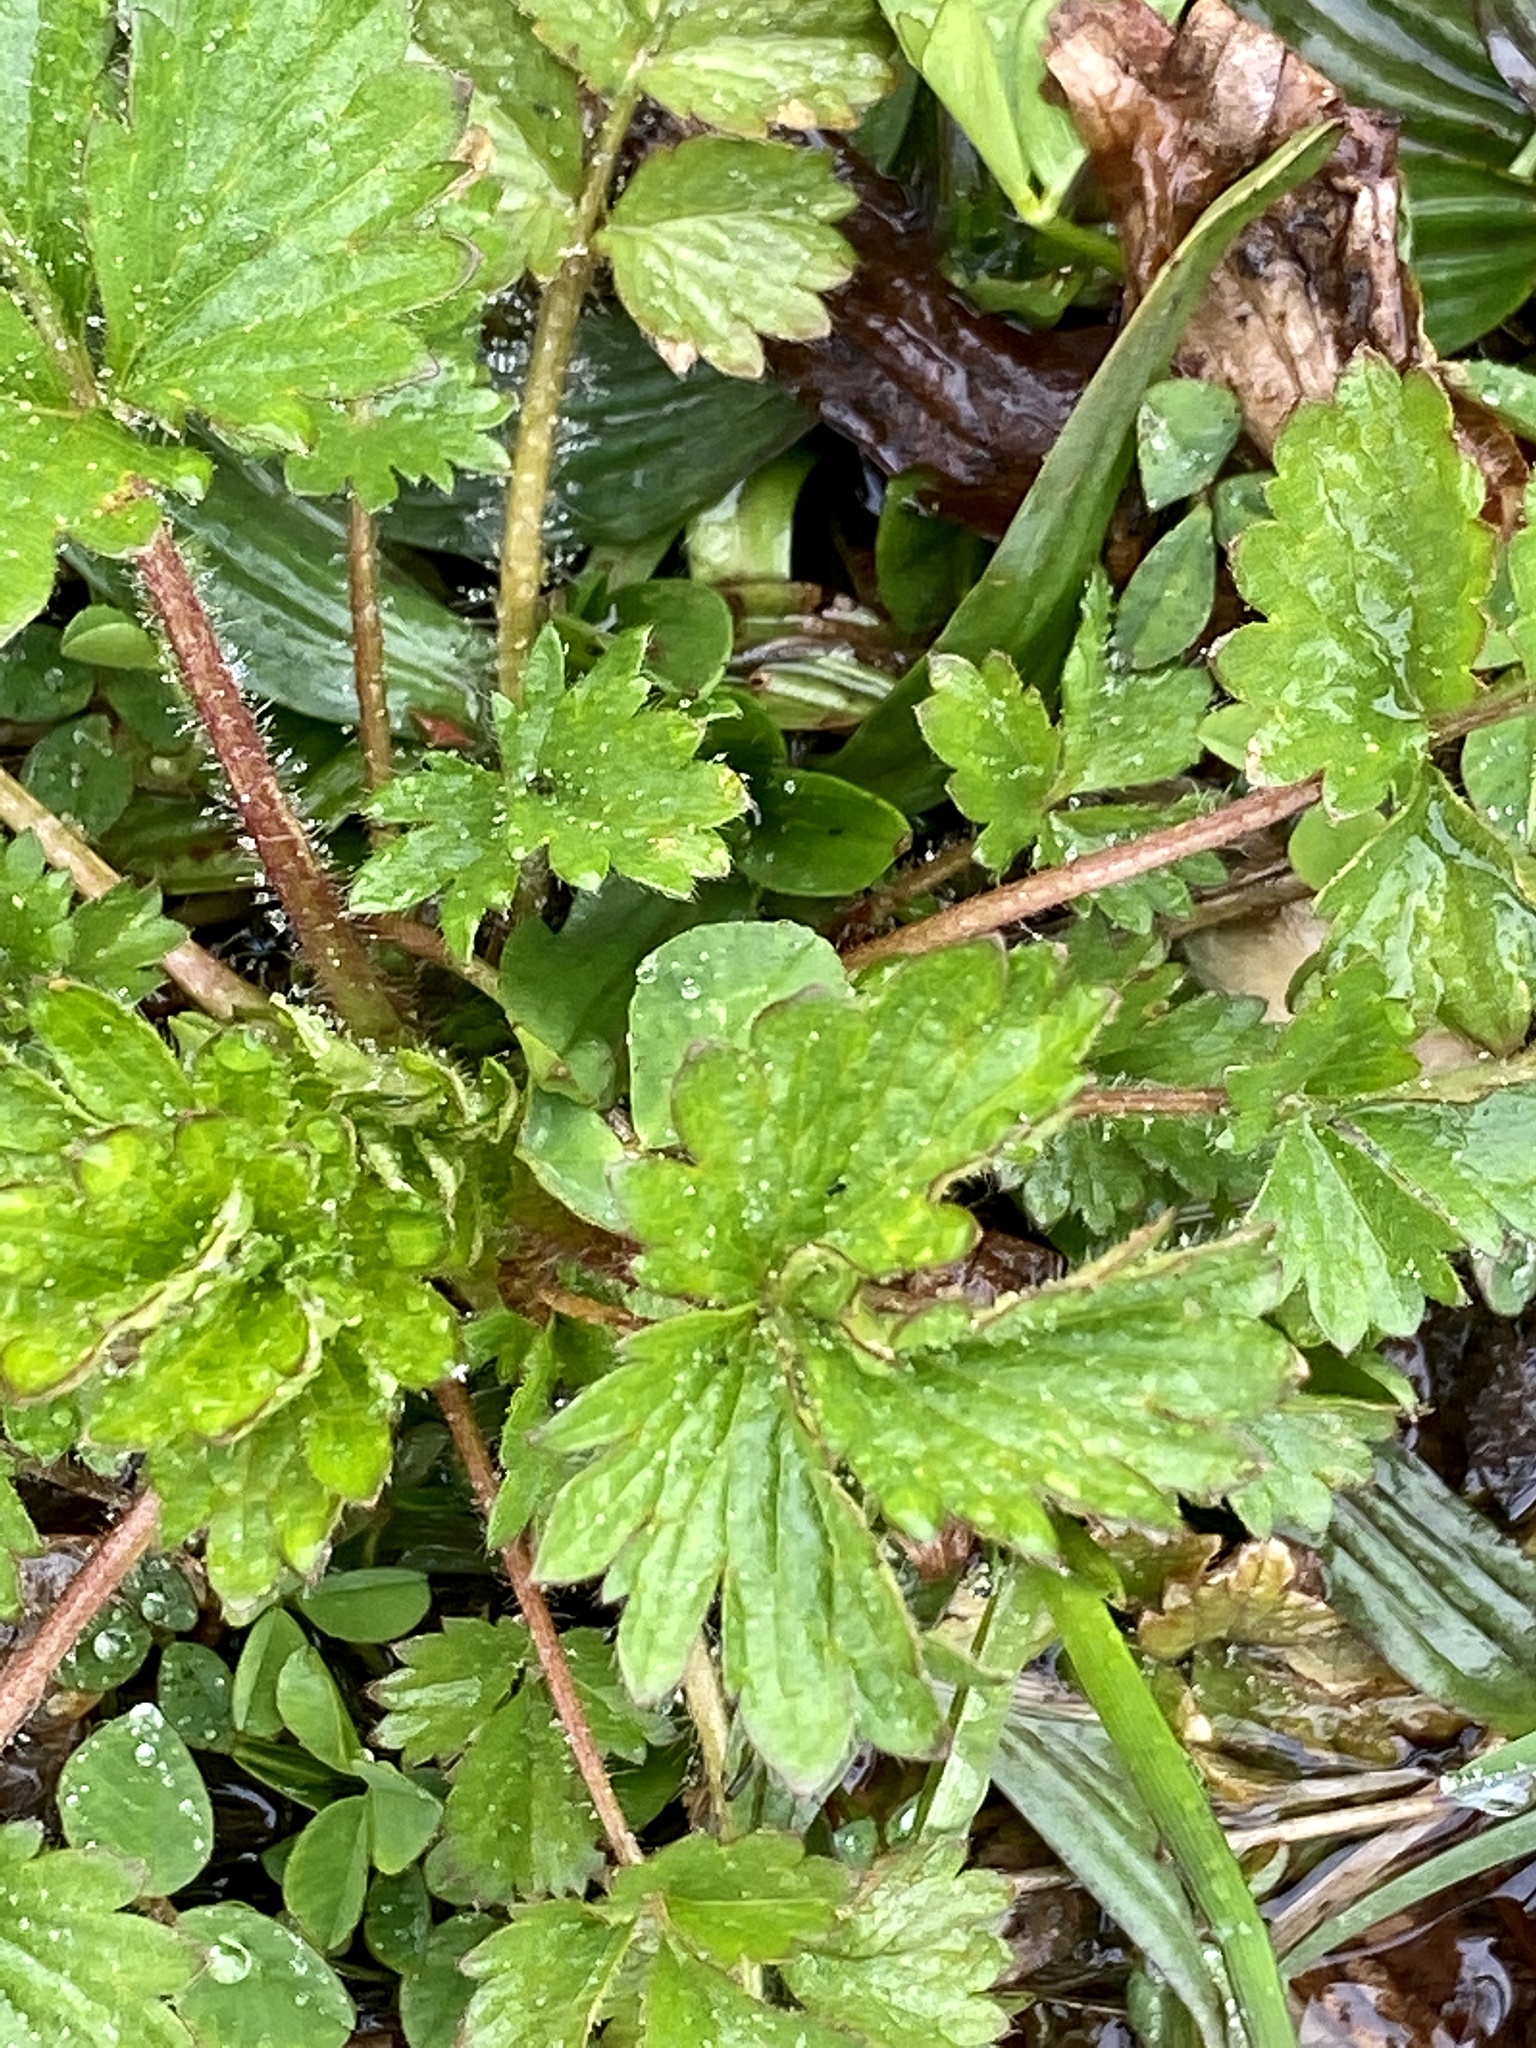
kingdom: Plantae
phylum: Tracheophyta
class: Magnoliopsida
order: Rosales
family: Rosaceae
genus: Potentilla
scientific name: Potentilla norvegica
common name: Ternate-leaved cinquefoil
